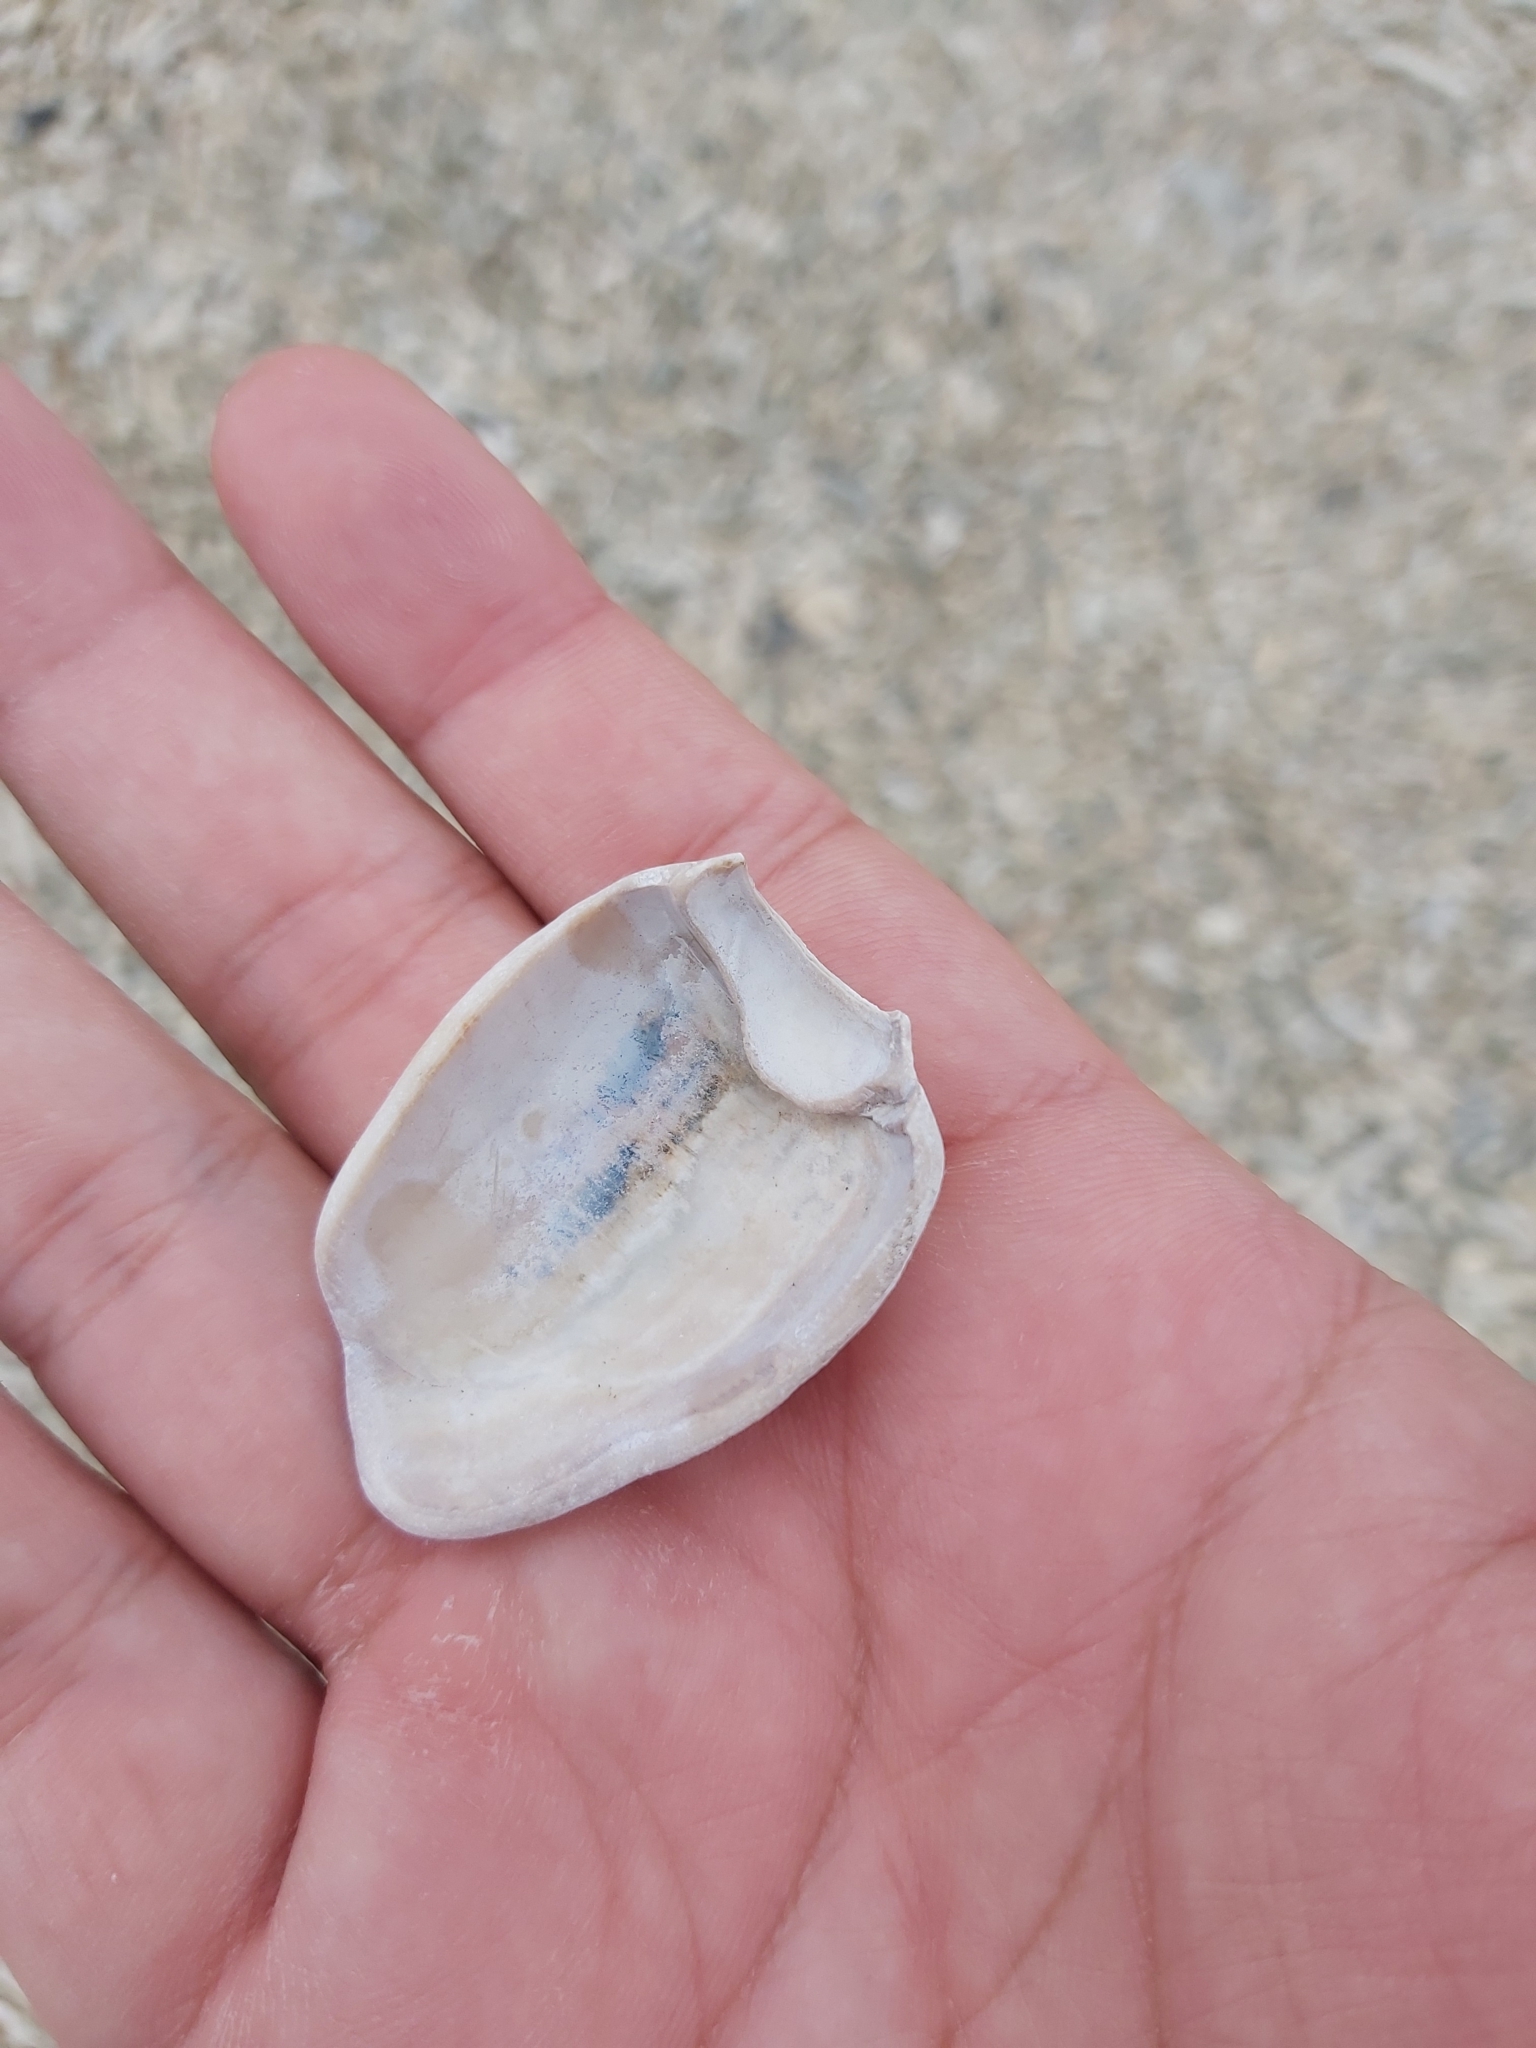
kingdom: Animalia
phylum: Mollusca
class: Gastropoda
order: Neogastropoda
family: Conidae
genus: Conus
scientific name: Conus textile
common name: Cloth-of-gold cone
